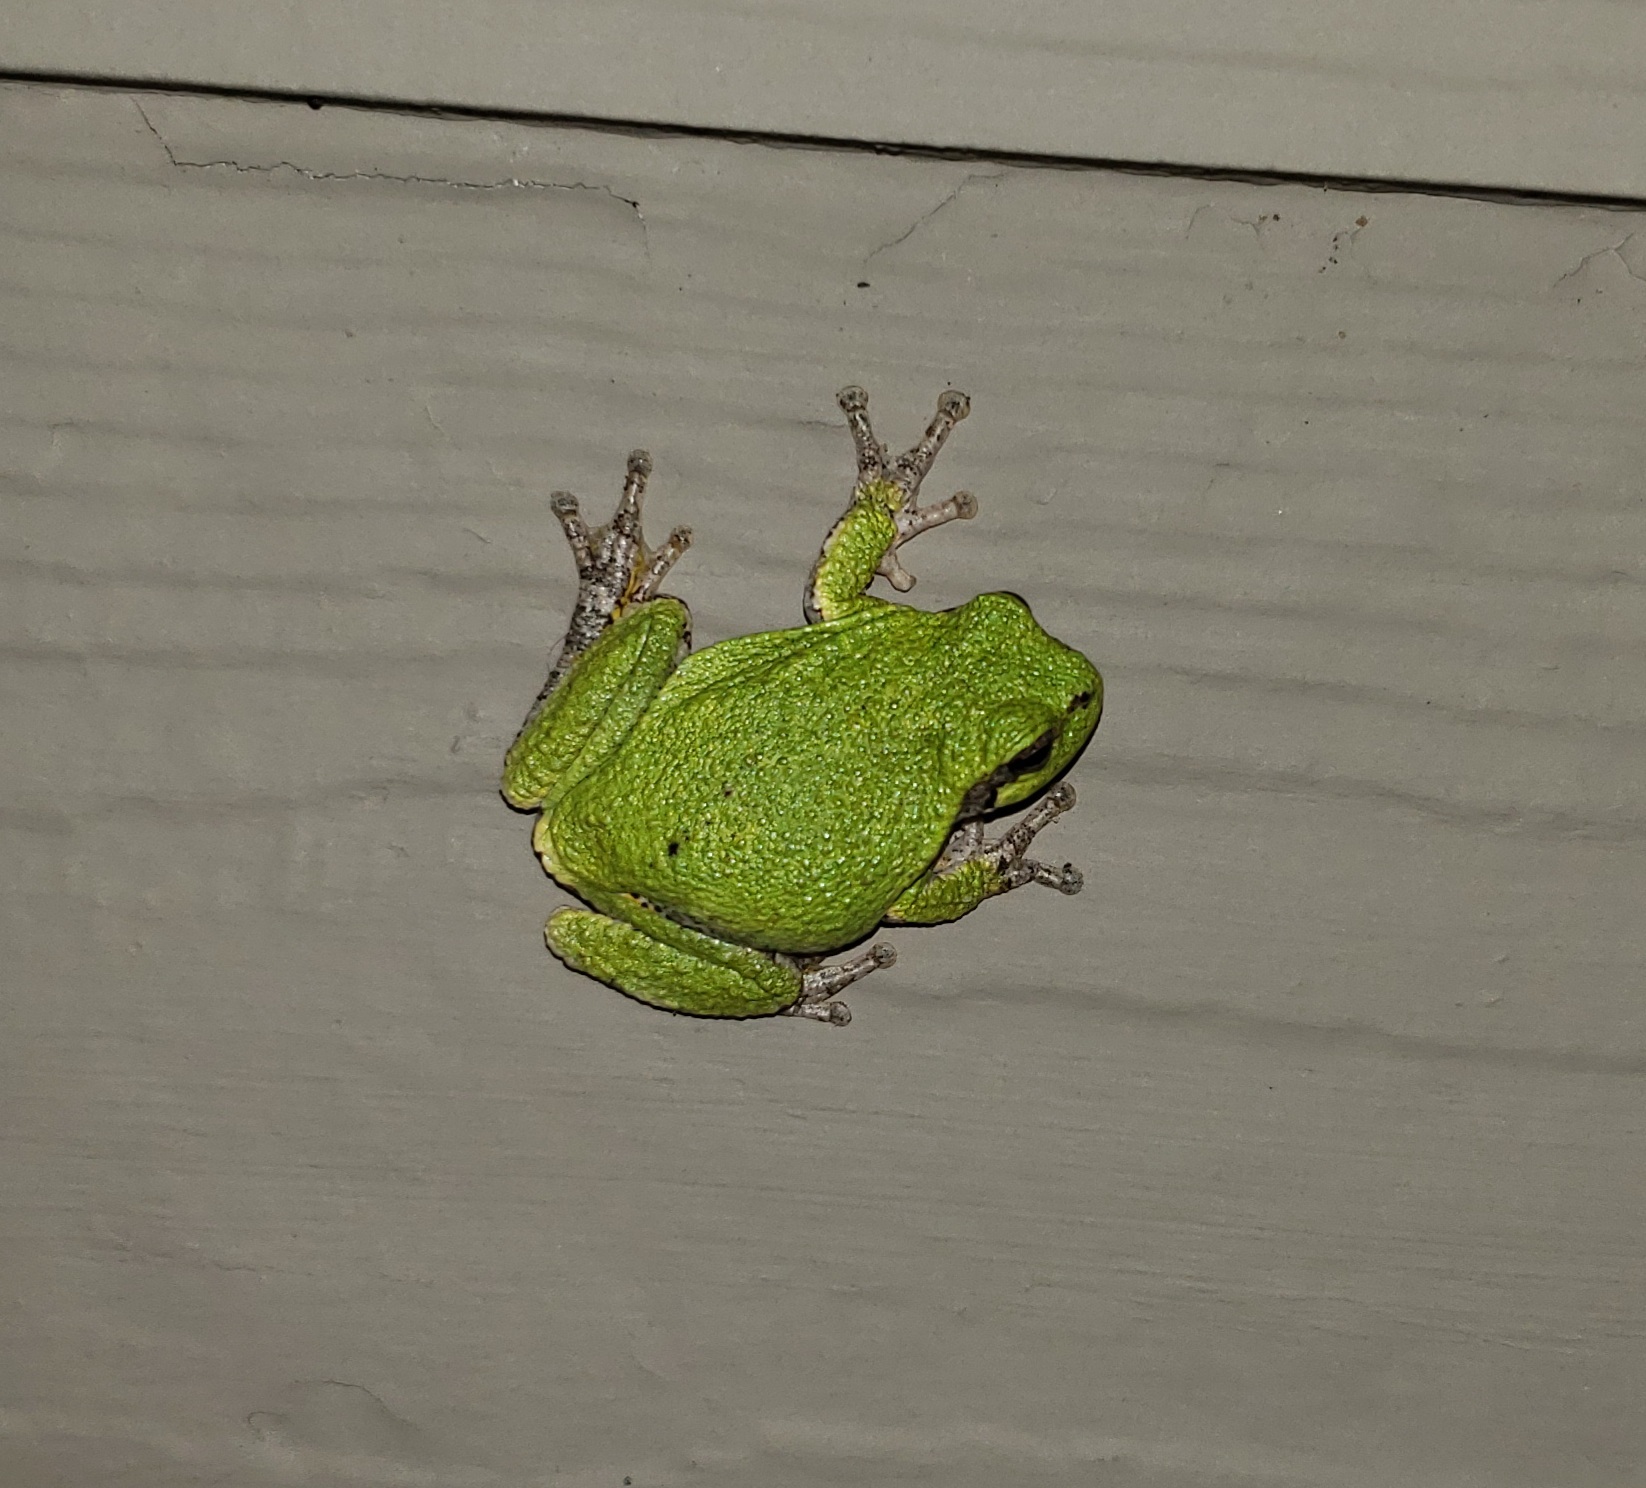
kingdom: Animalia
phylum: Chordata
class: Amphibia
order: Anura
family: Hylidae
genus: Hyla
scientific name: Hyla
